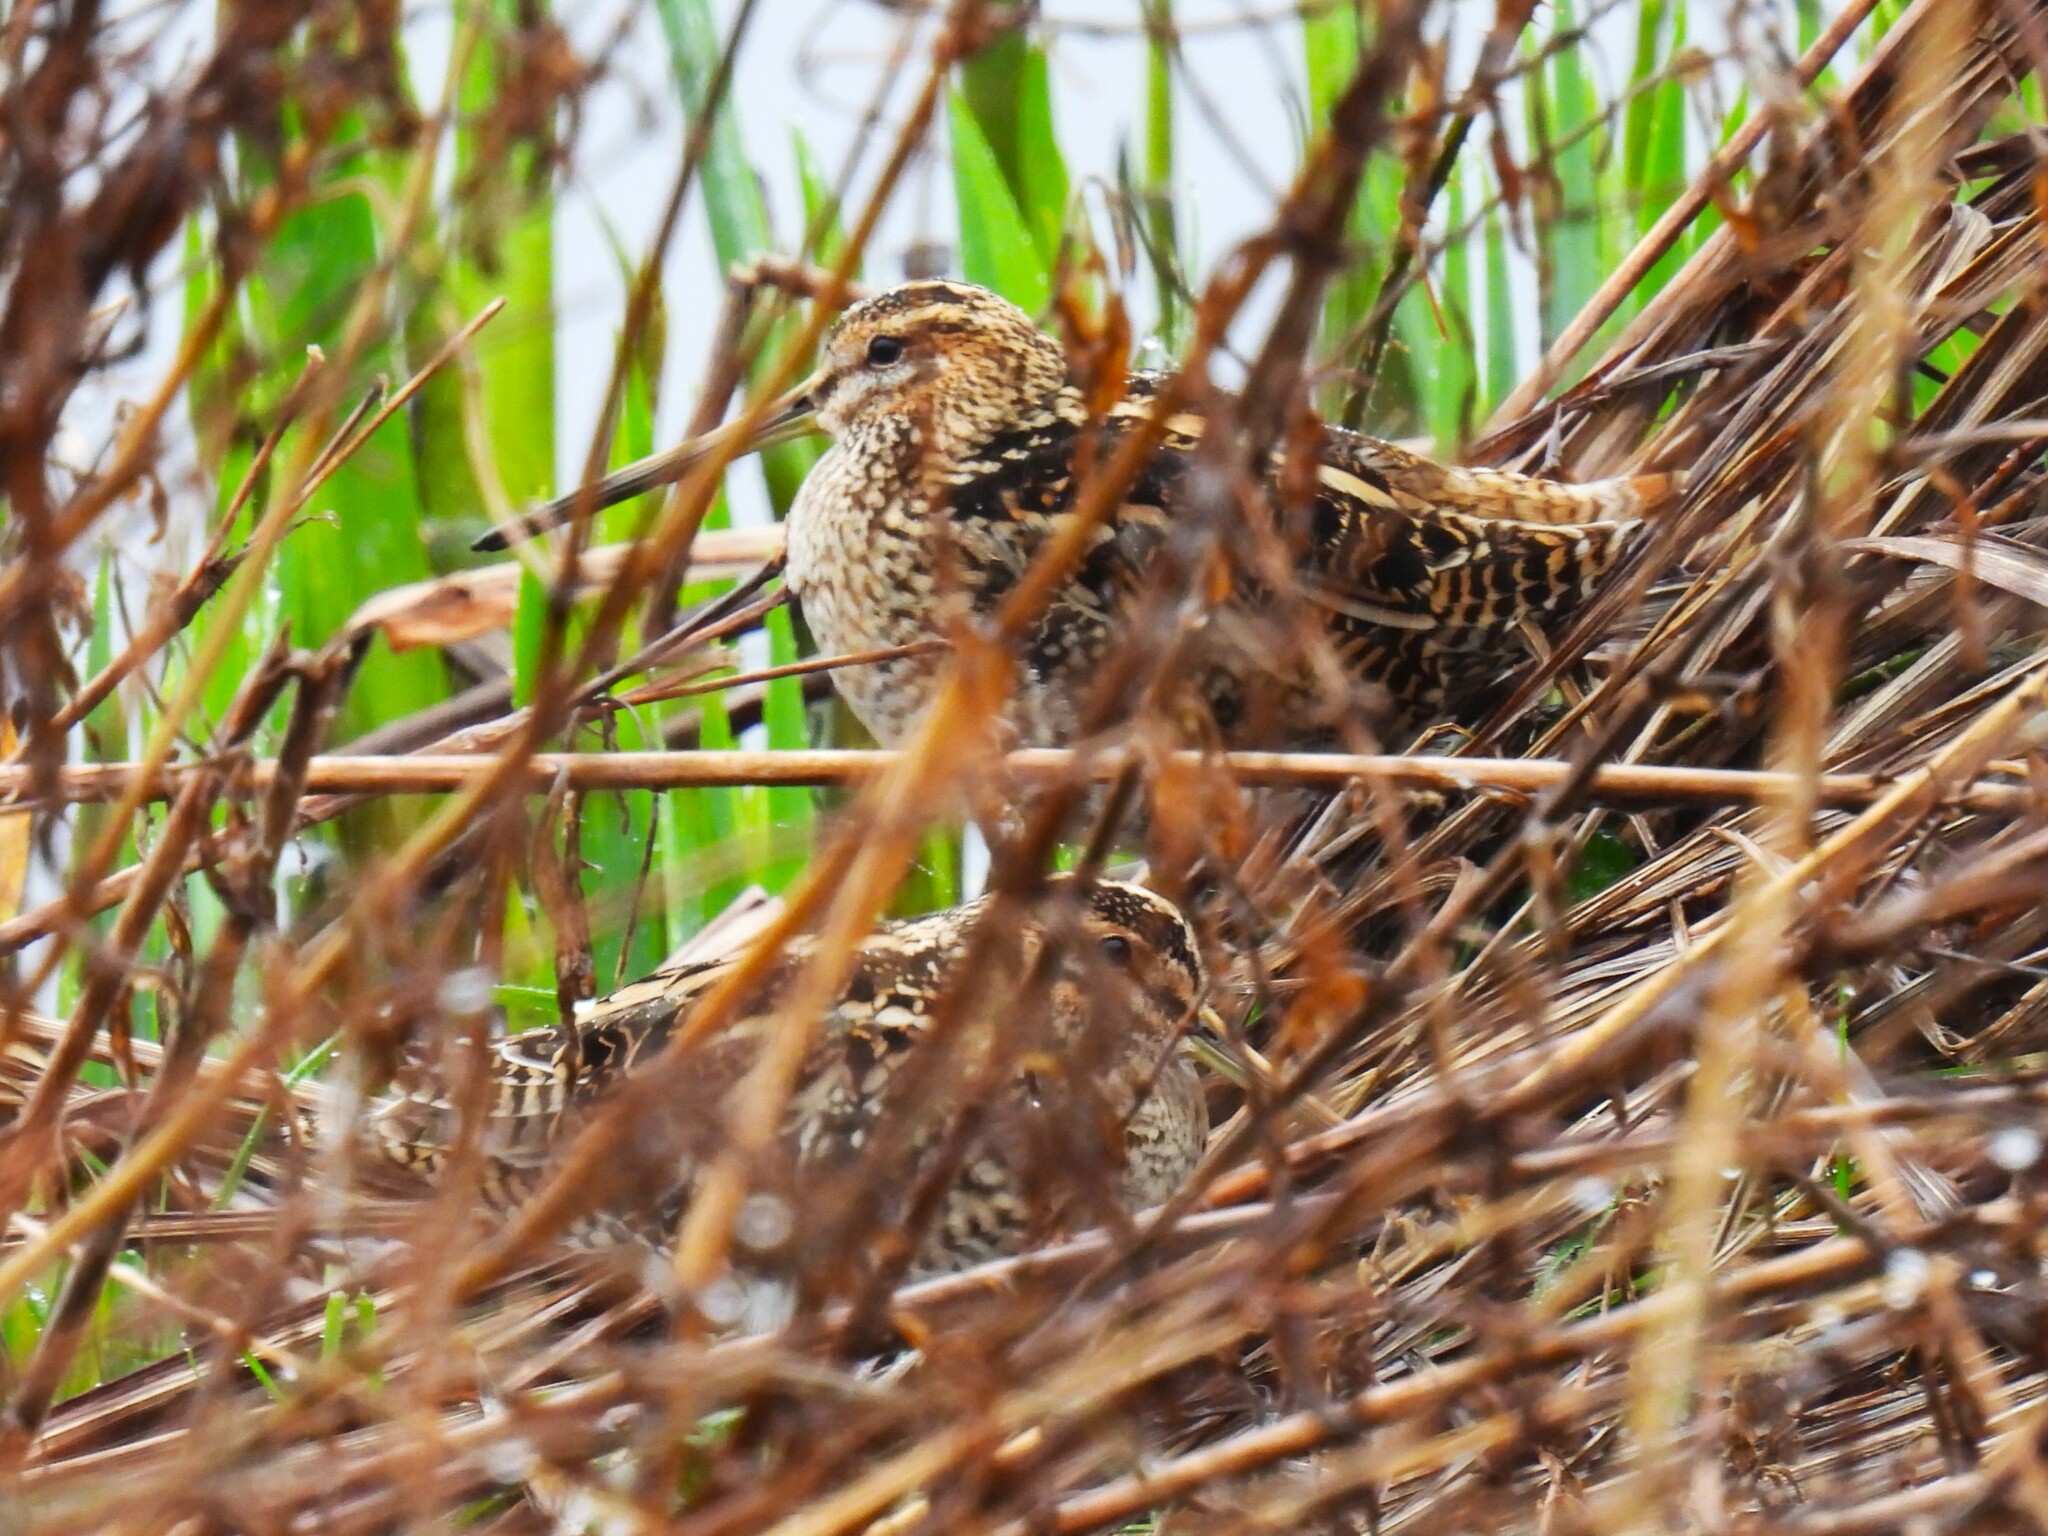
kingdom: Animalia
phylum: Chordata
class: Aves
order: Charadriiformes
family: Scolopacidae
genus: Gallinago
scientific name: Gallinago gallinago
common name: Common snipe
